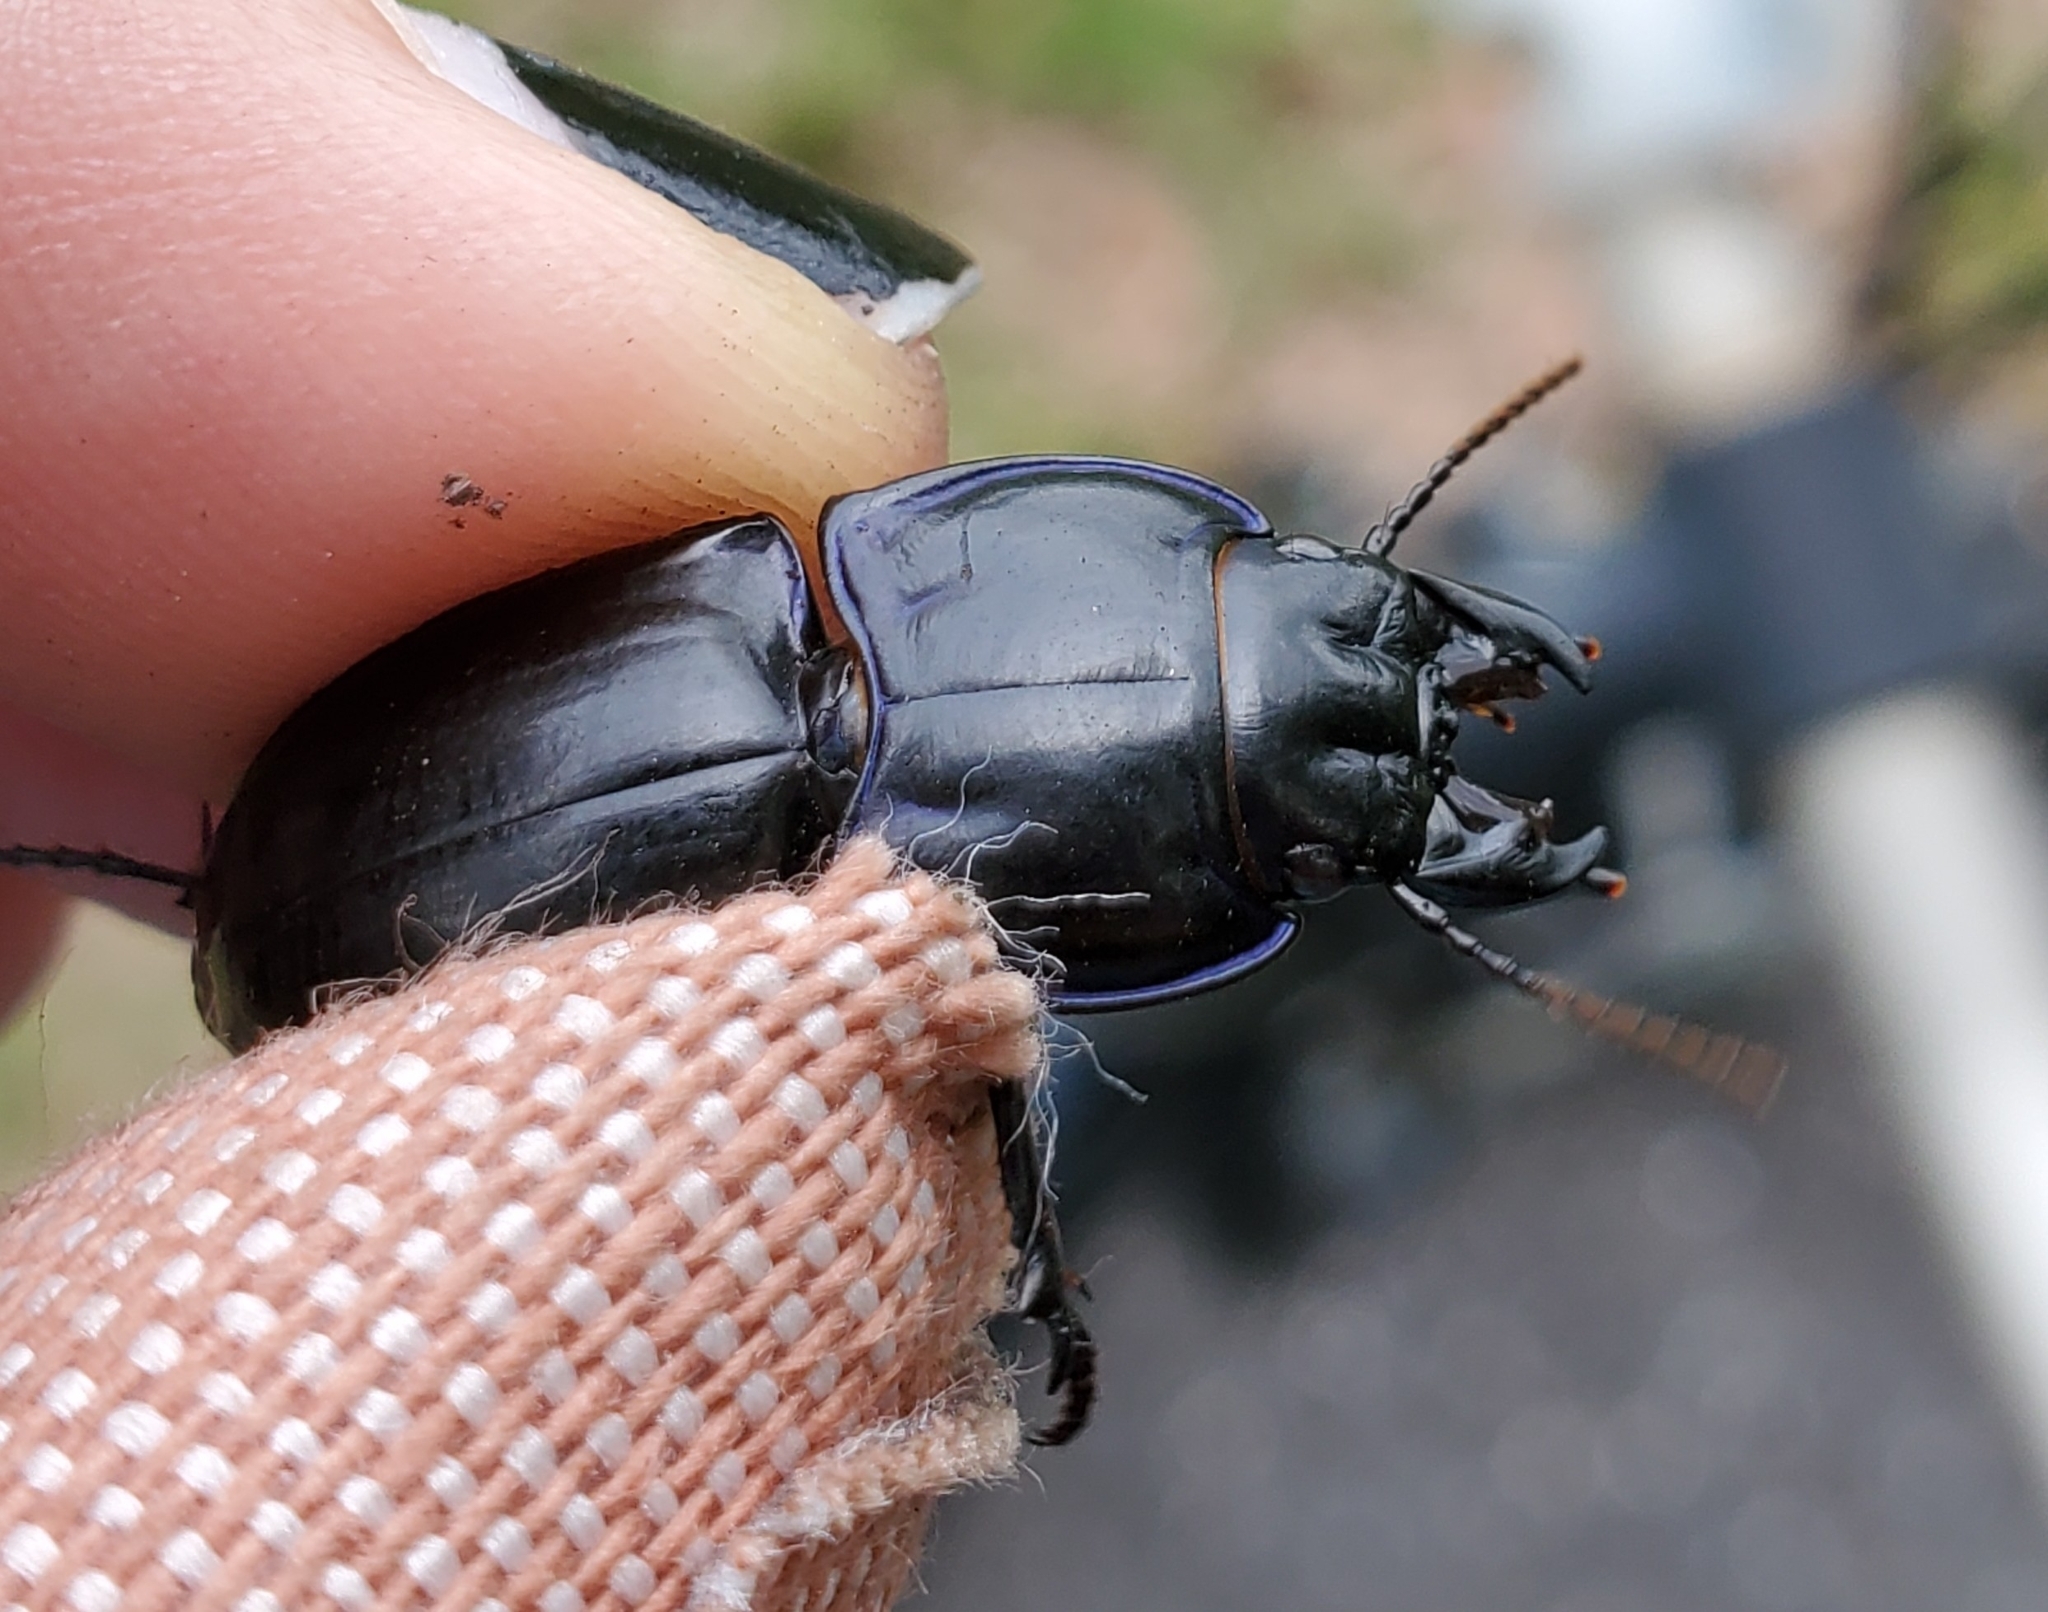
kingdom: Animalia
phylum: Arthropoda
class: Insecta
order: Coleoptera
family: Carabidae
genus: Pasimachus
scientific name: Pasimachus sublaevis
